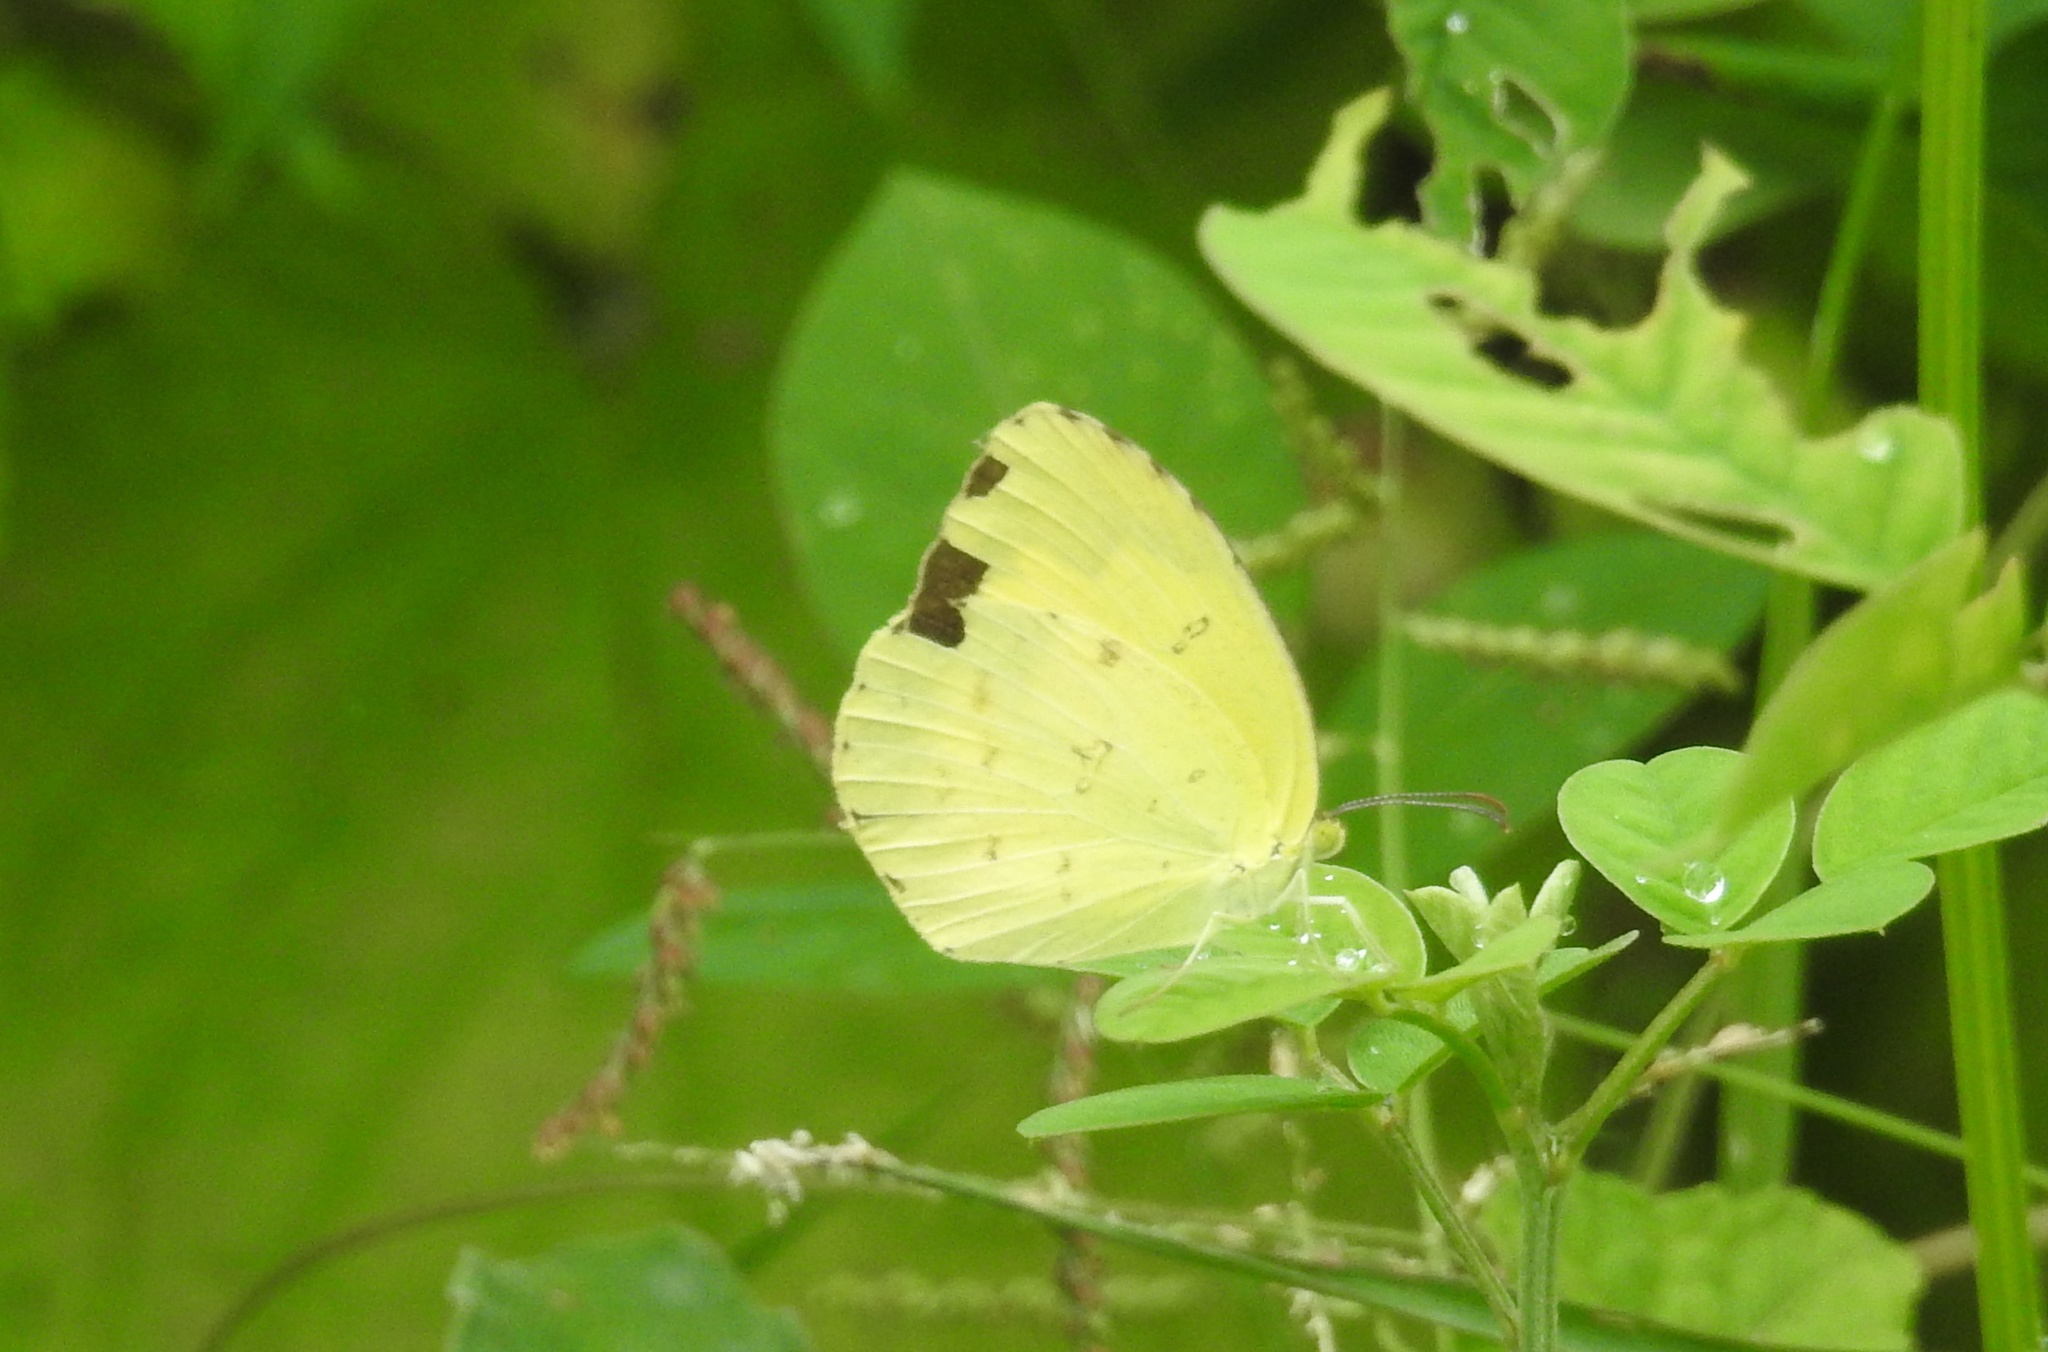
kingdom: Animalia
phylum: Arthropoda
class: Insecta
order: Lepidoptera
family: Pieridae
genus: Eurema
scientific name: Eurema hecabe
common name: Pale grass yellow
